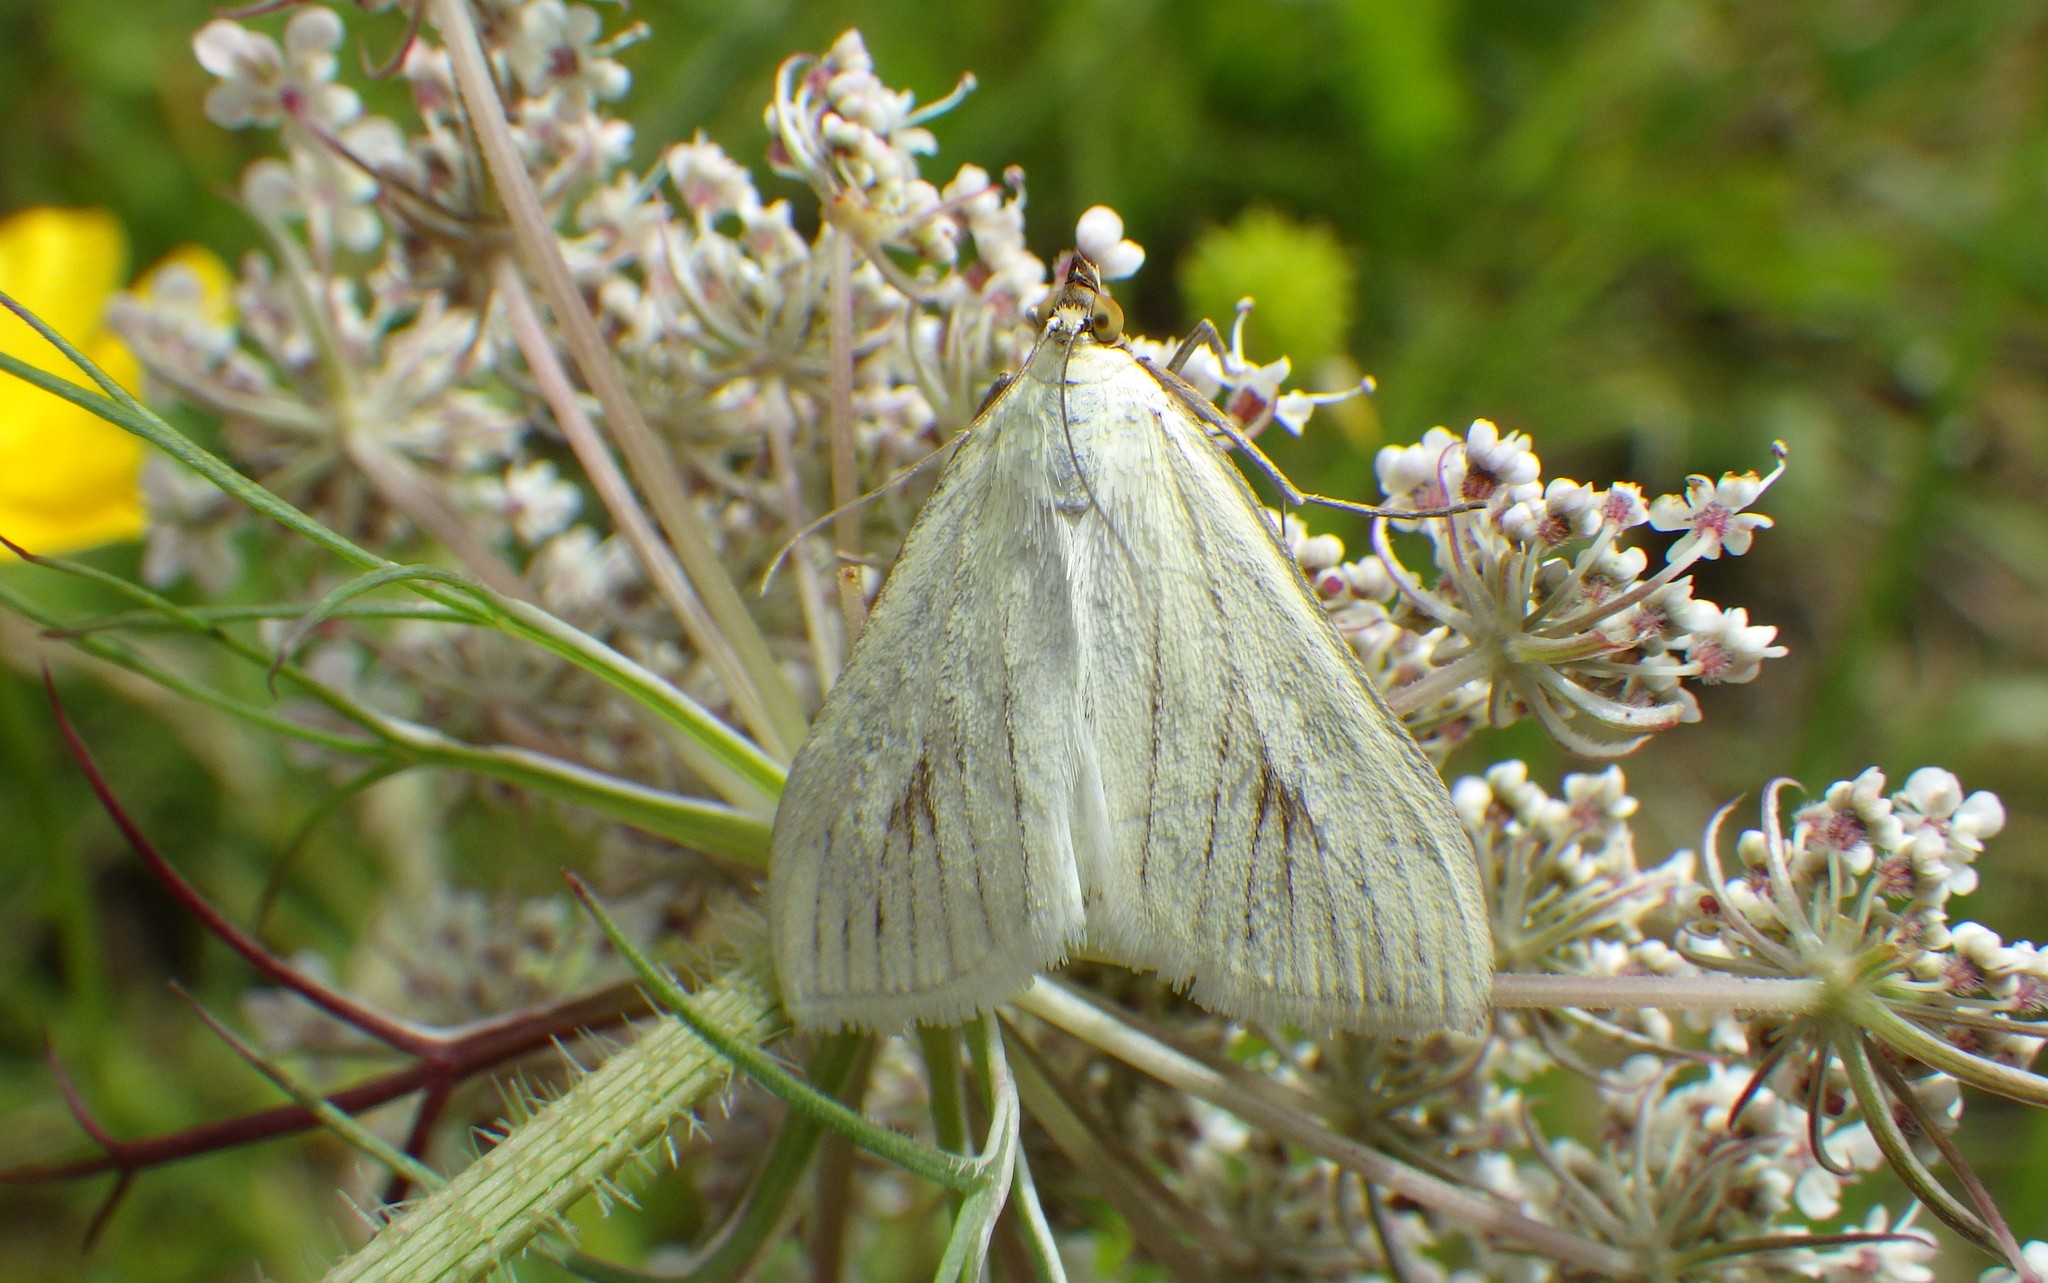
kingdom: Animalia
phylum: Arthropoda
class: Insecta
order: Lepidoptera
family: Crambidae
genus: Sitochroa
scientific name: Sitochroa palealis
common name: Greenish-yellow sitochroa moth
